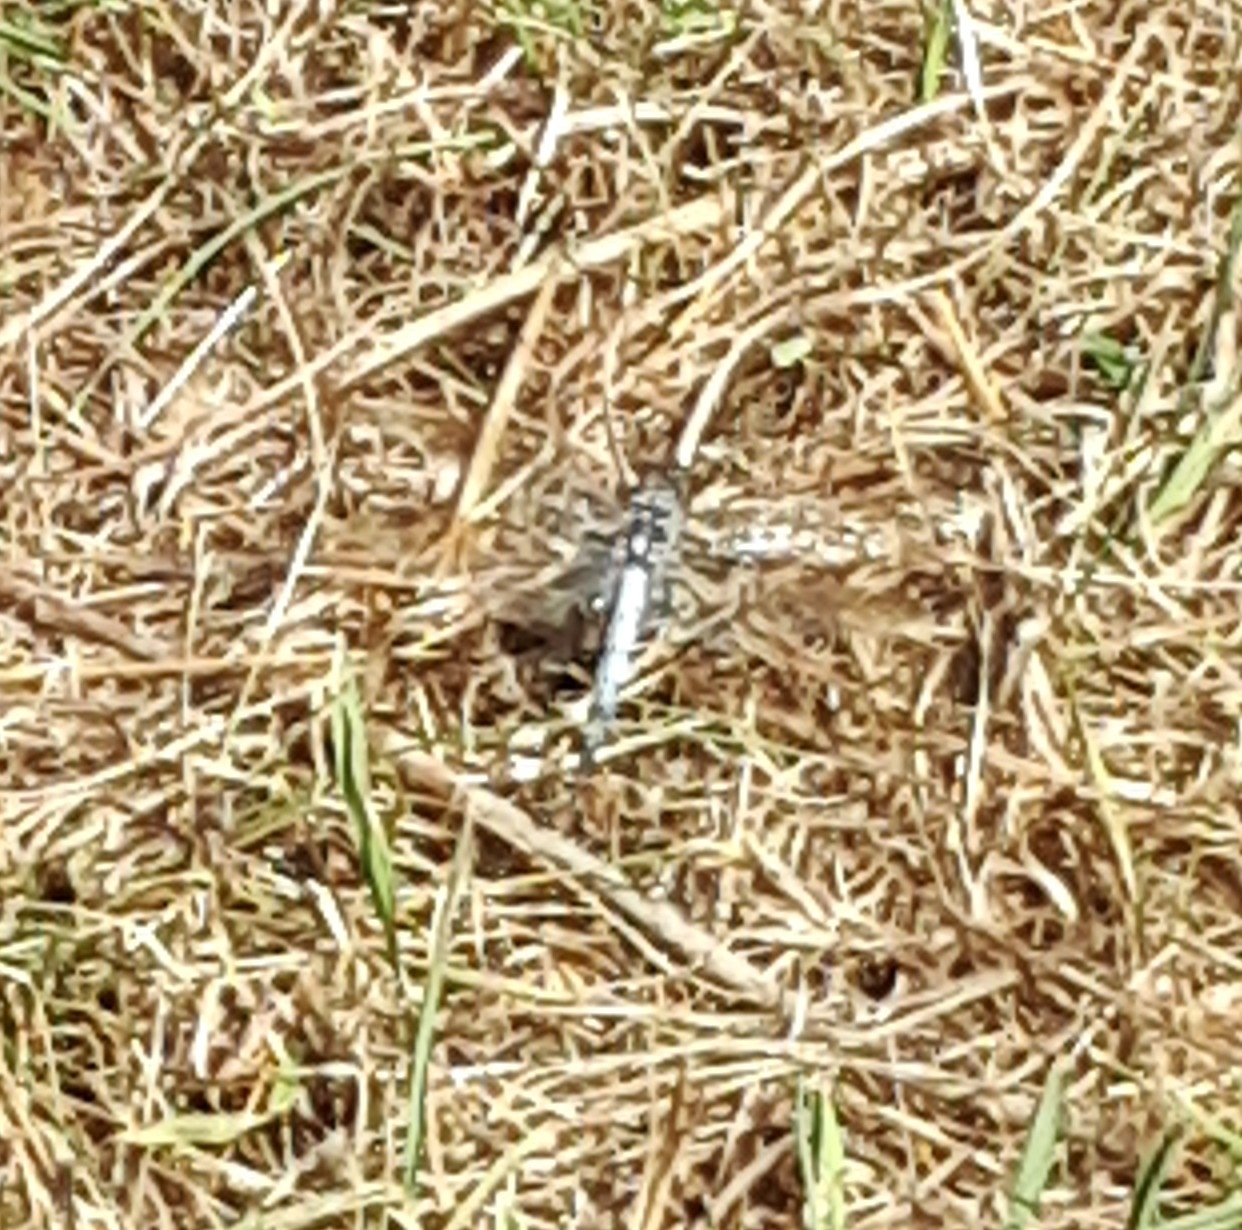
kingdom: Animalia
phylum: Arthropoda
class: Insecta
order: Odonata
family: Libellulidae
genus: Orthetrum
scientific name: Orthetrum caledonicum
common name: Blue skimmer
